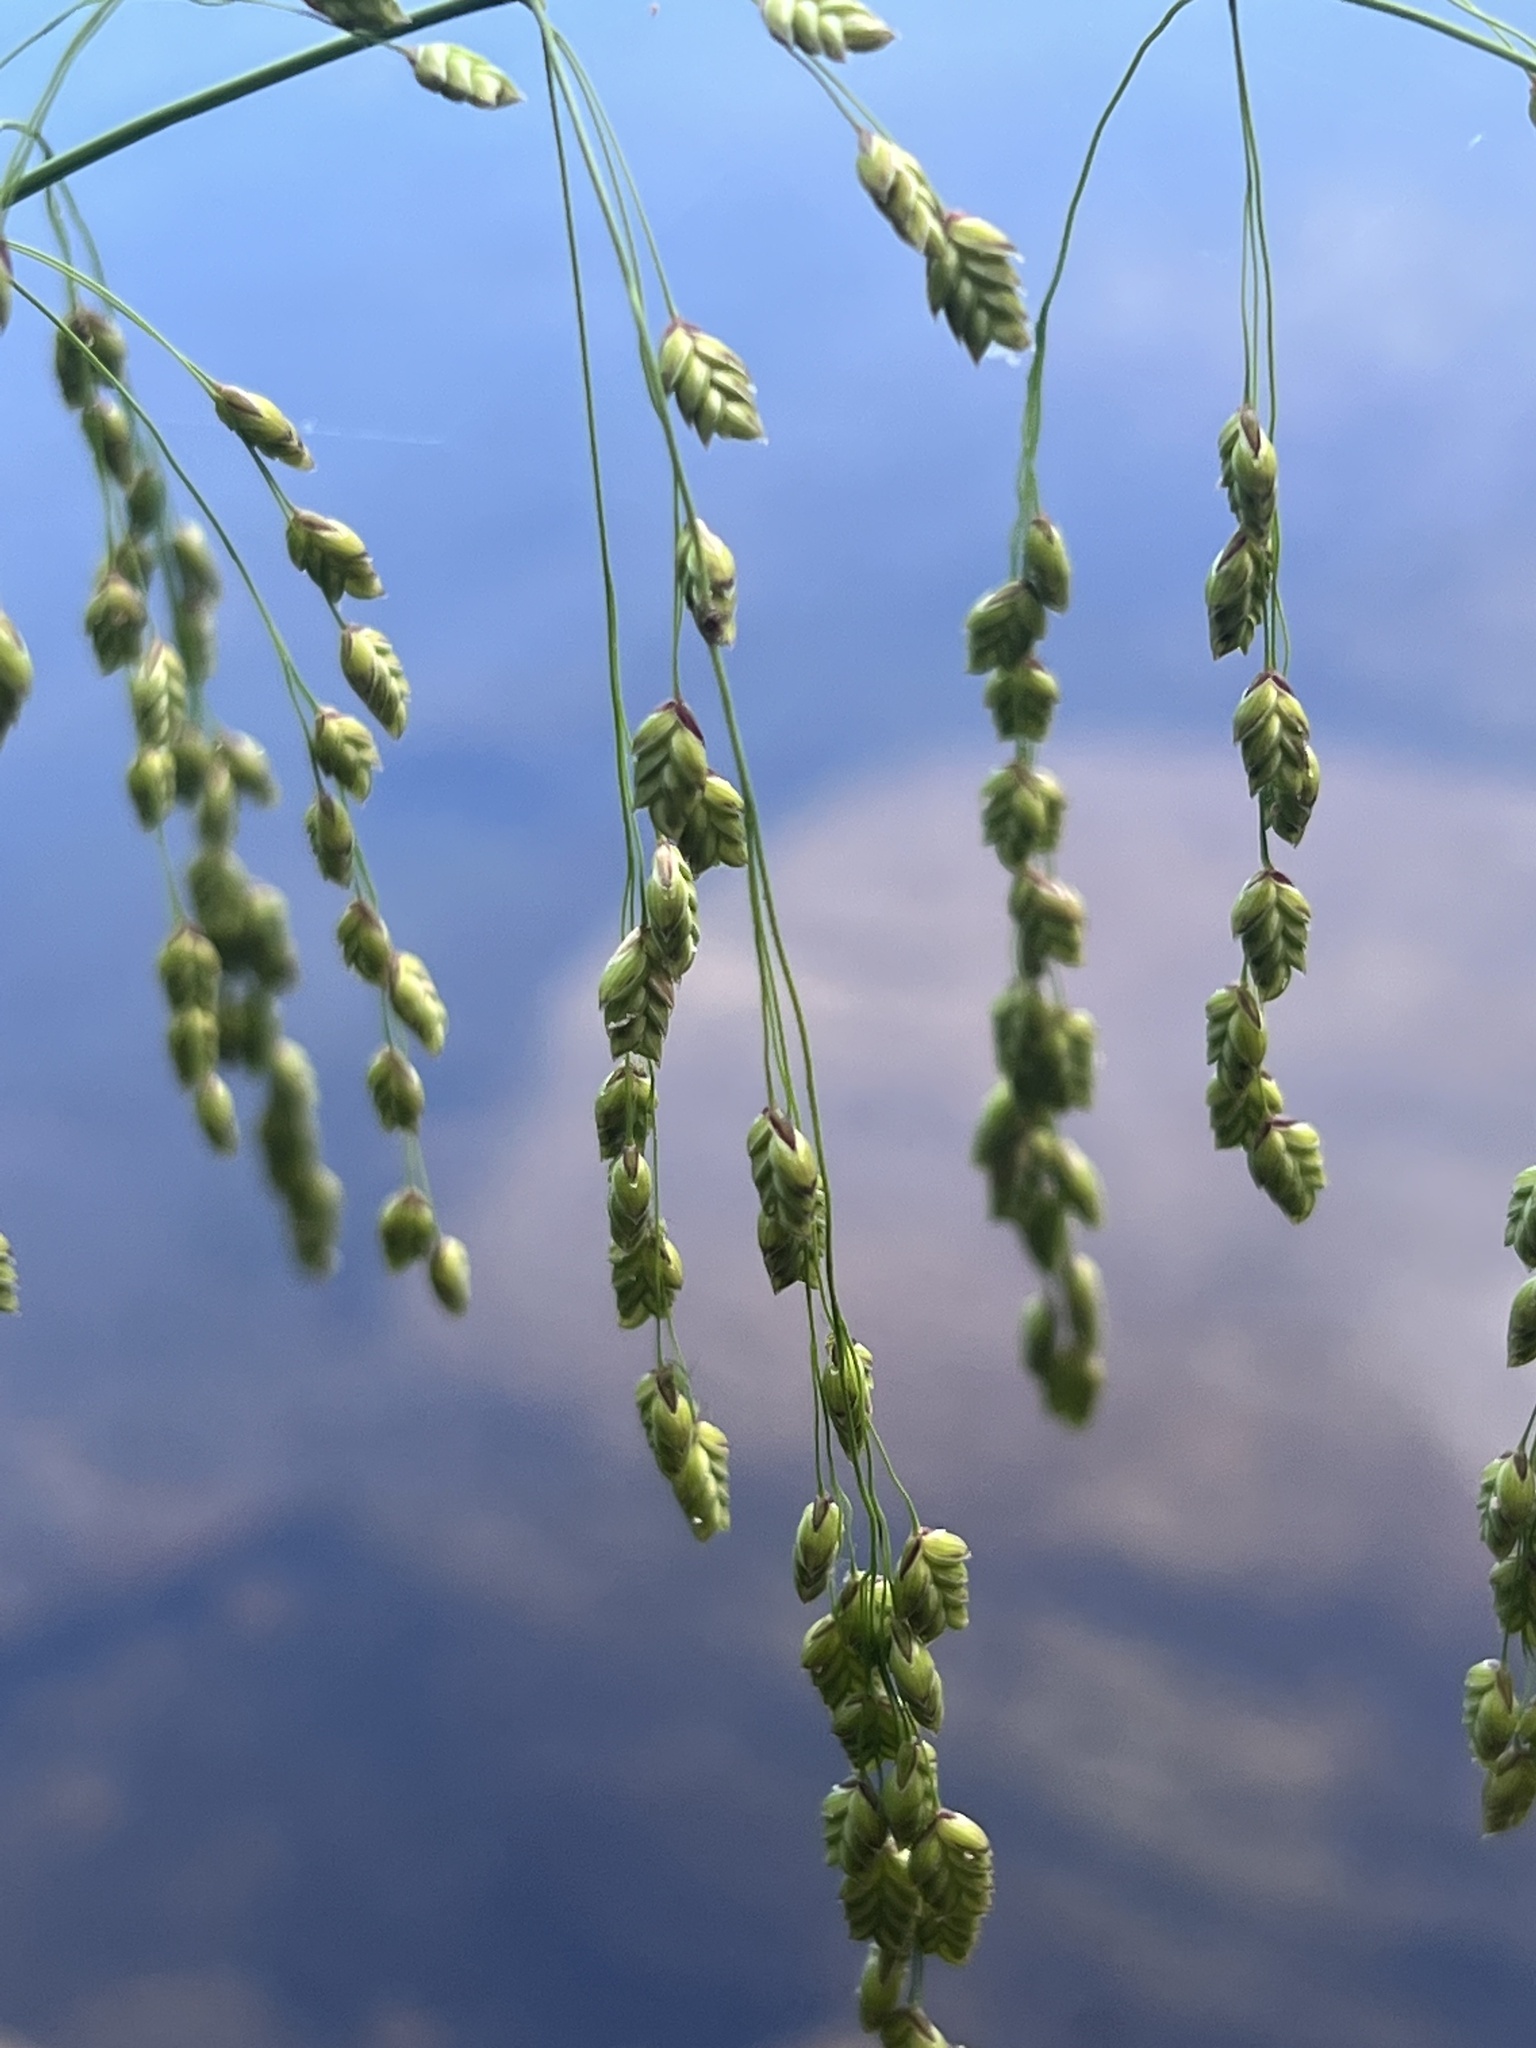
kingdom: Plantae
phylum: Tracheophyta
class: Liliopsida
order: Poales
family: Poaceae
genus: Glyceria
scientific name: Glyceria canadensis
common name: Canada mannagrass
